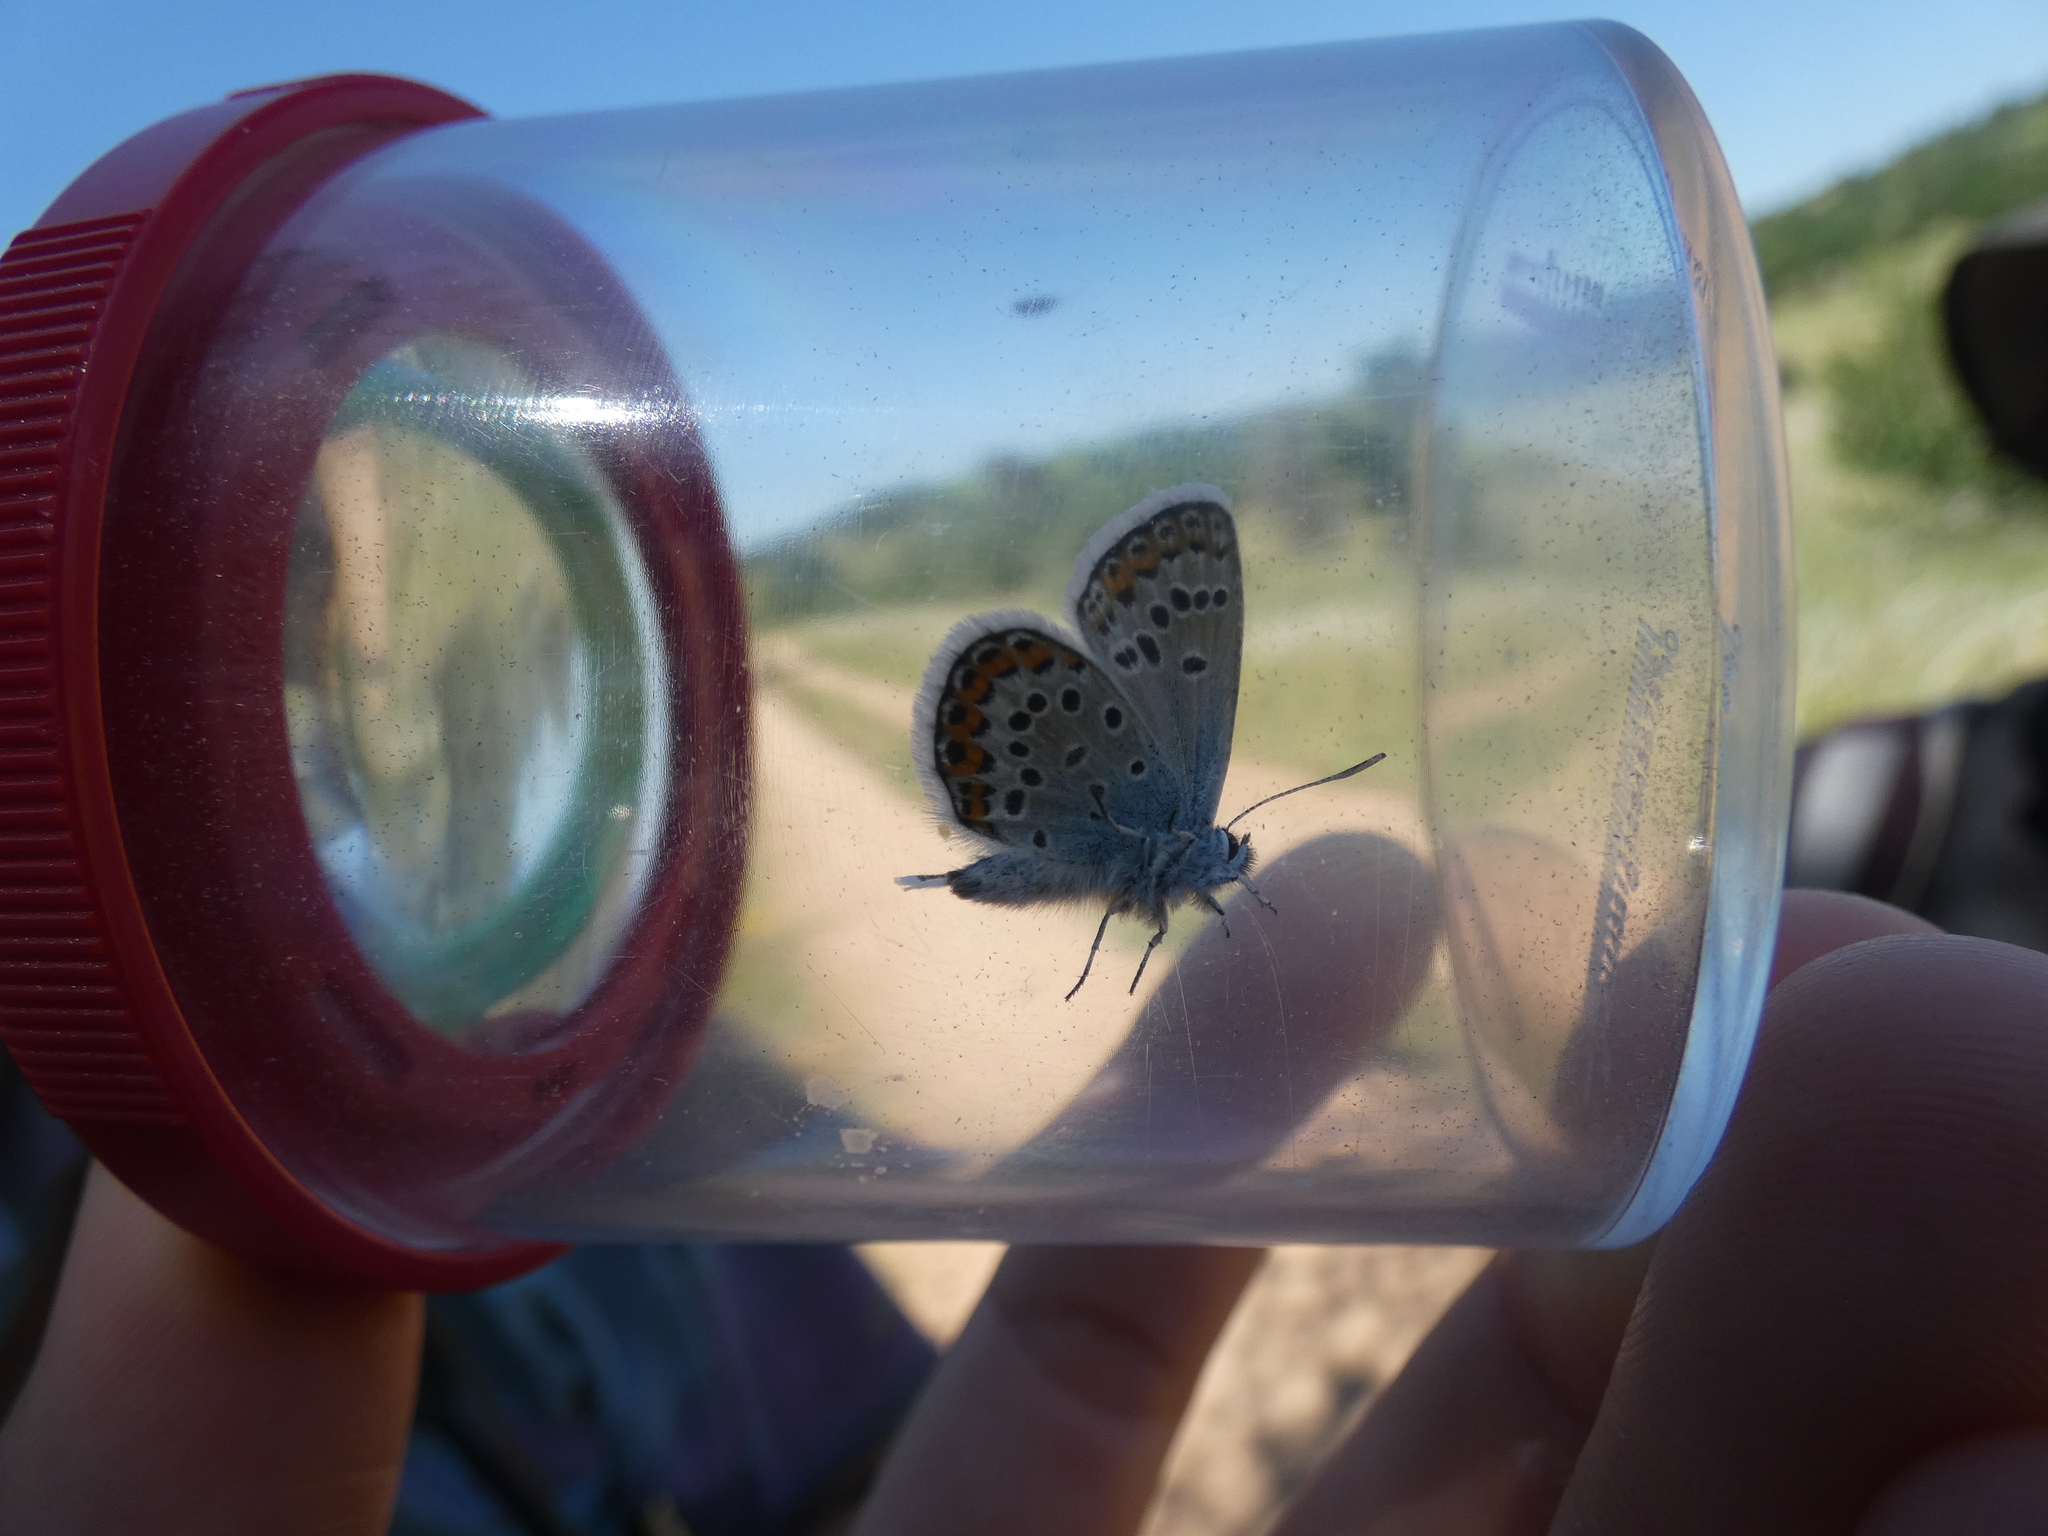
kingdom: Animalia
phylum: Arthropoda
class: Insecta
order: Lepidoptera
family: Lycaenidae
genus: Plebejus
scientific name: Plebejus argus
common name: Silver-studded blue
